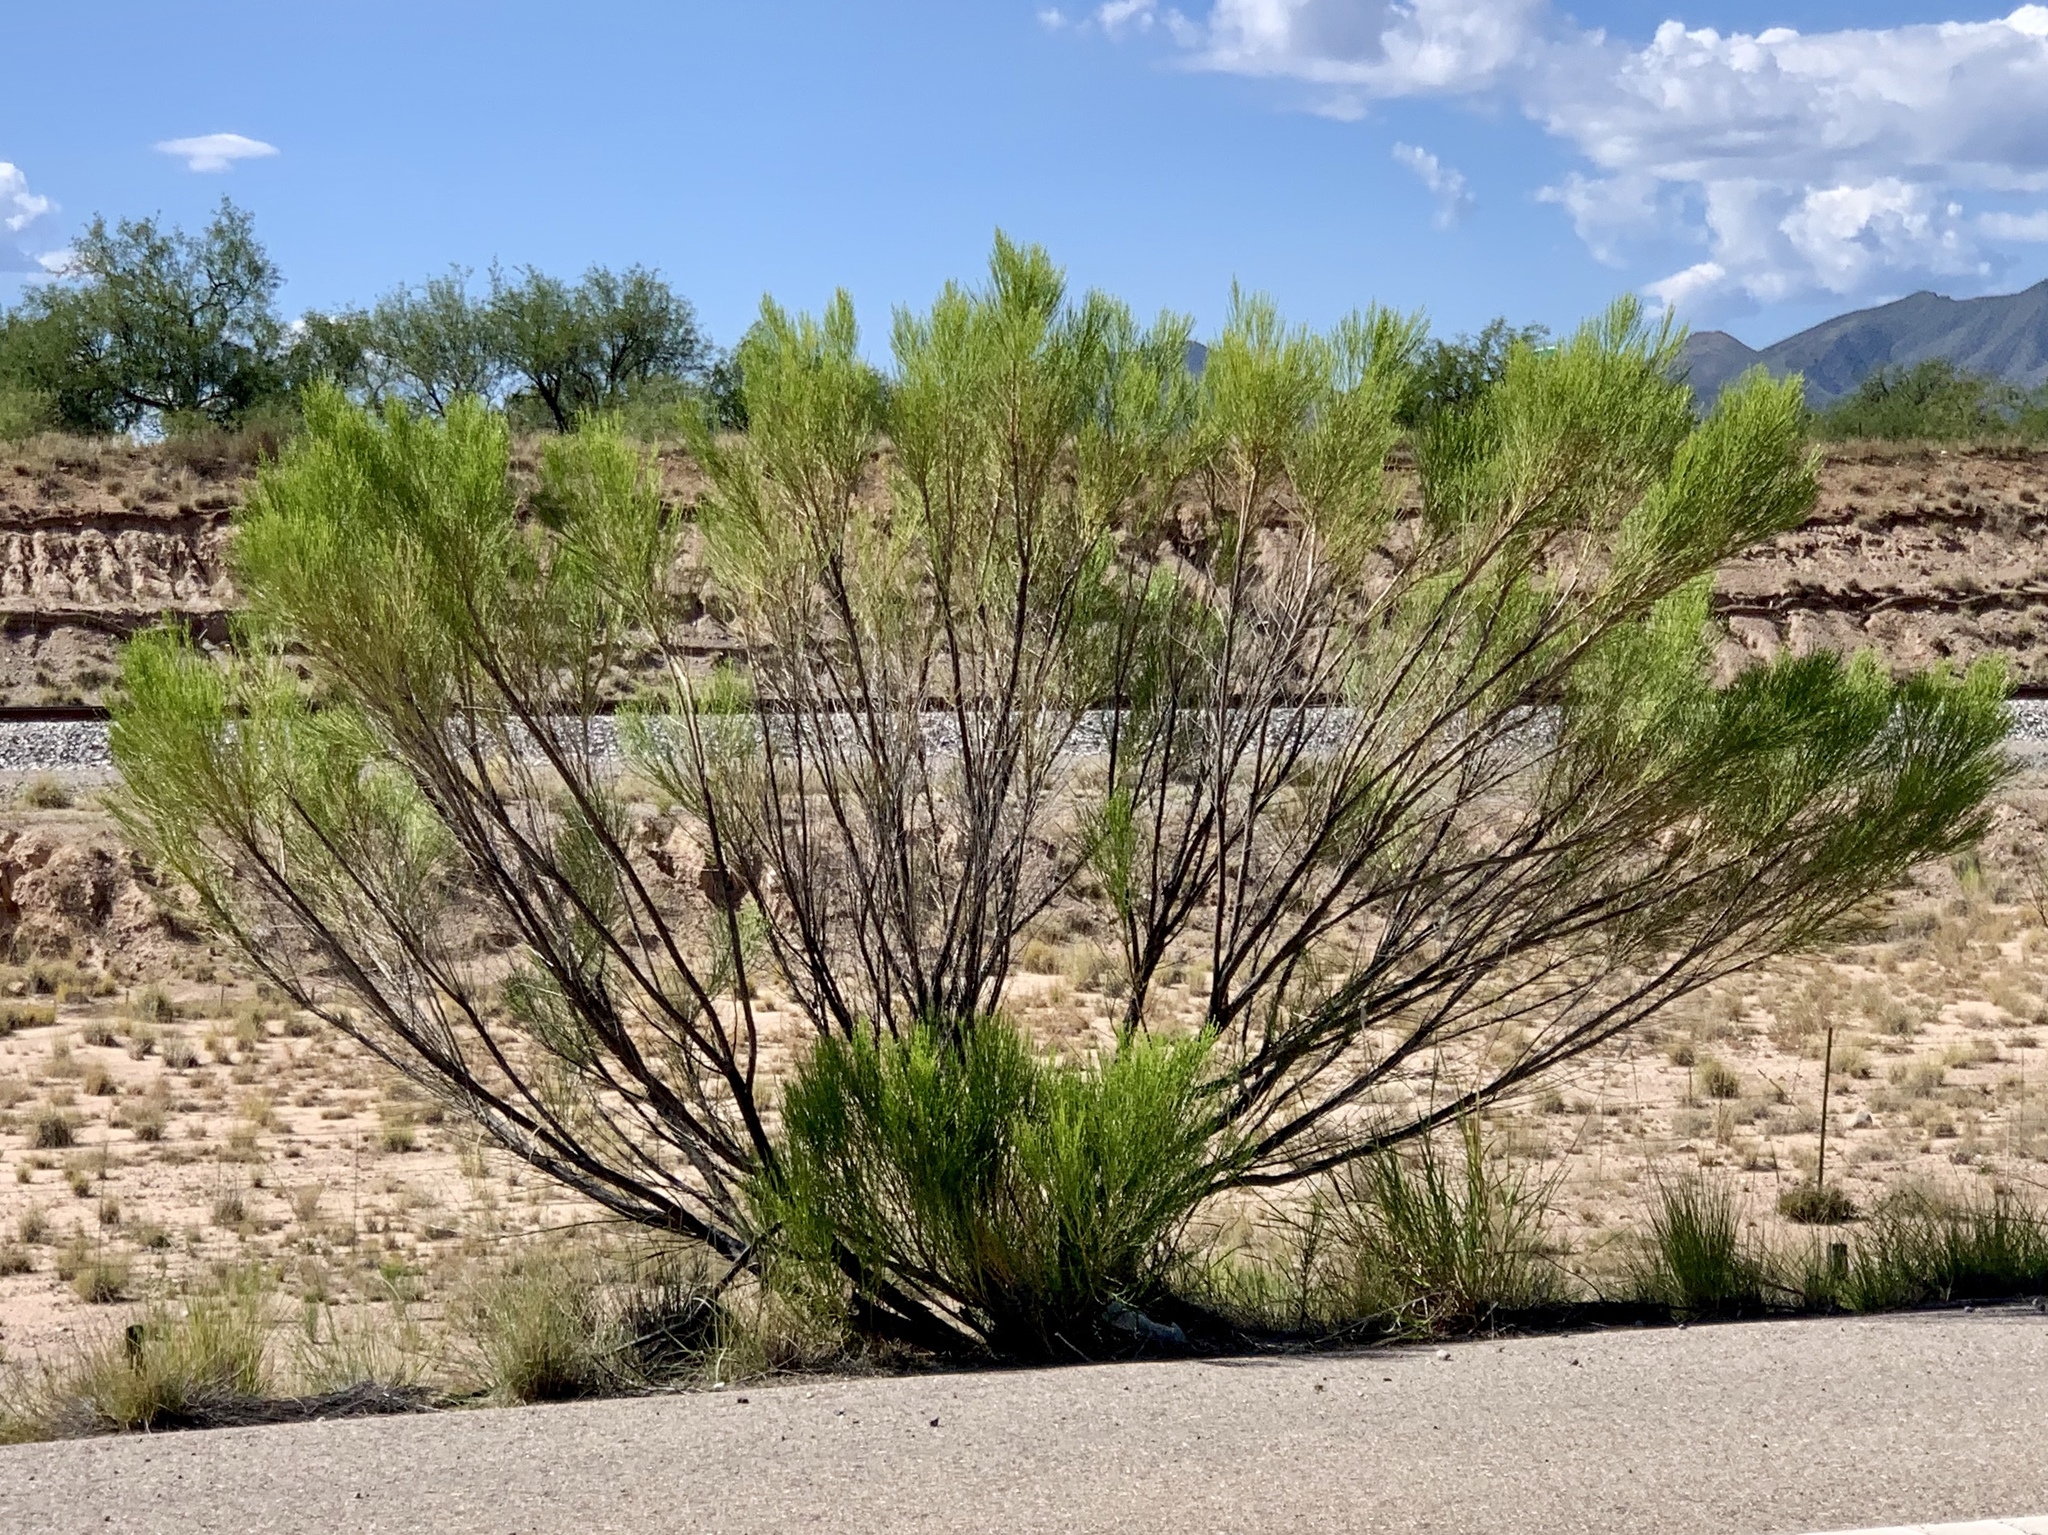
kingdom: Plantae
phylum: Tracheophyta
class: Magnoliopsida
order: Asterales
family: Asteraceae
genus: Baccharis
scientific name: Baccharis sarothroides
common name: Desert-broom
